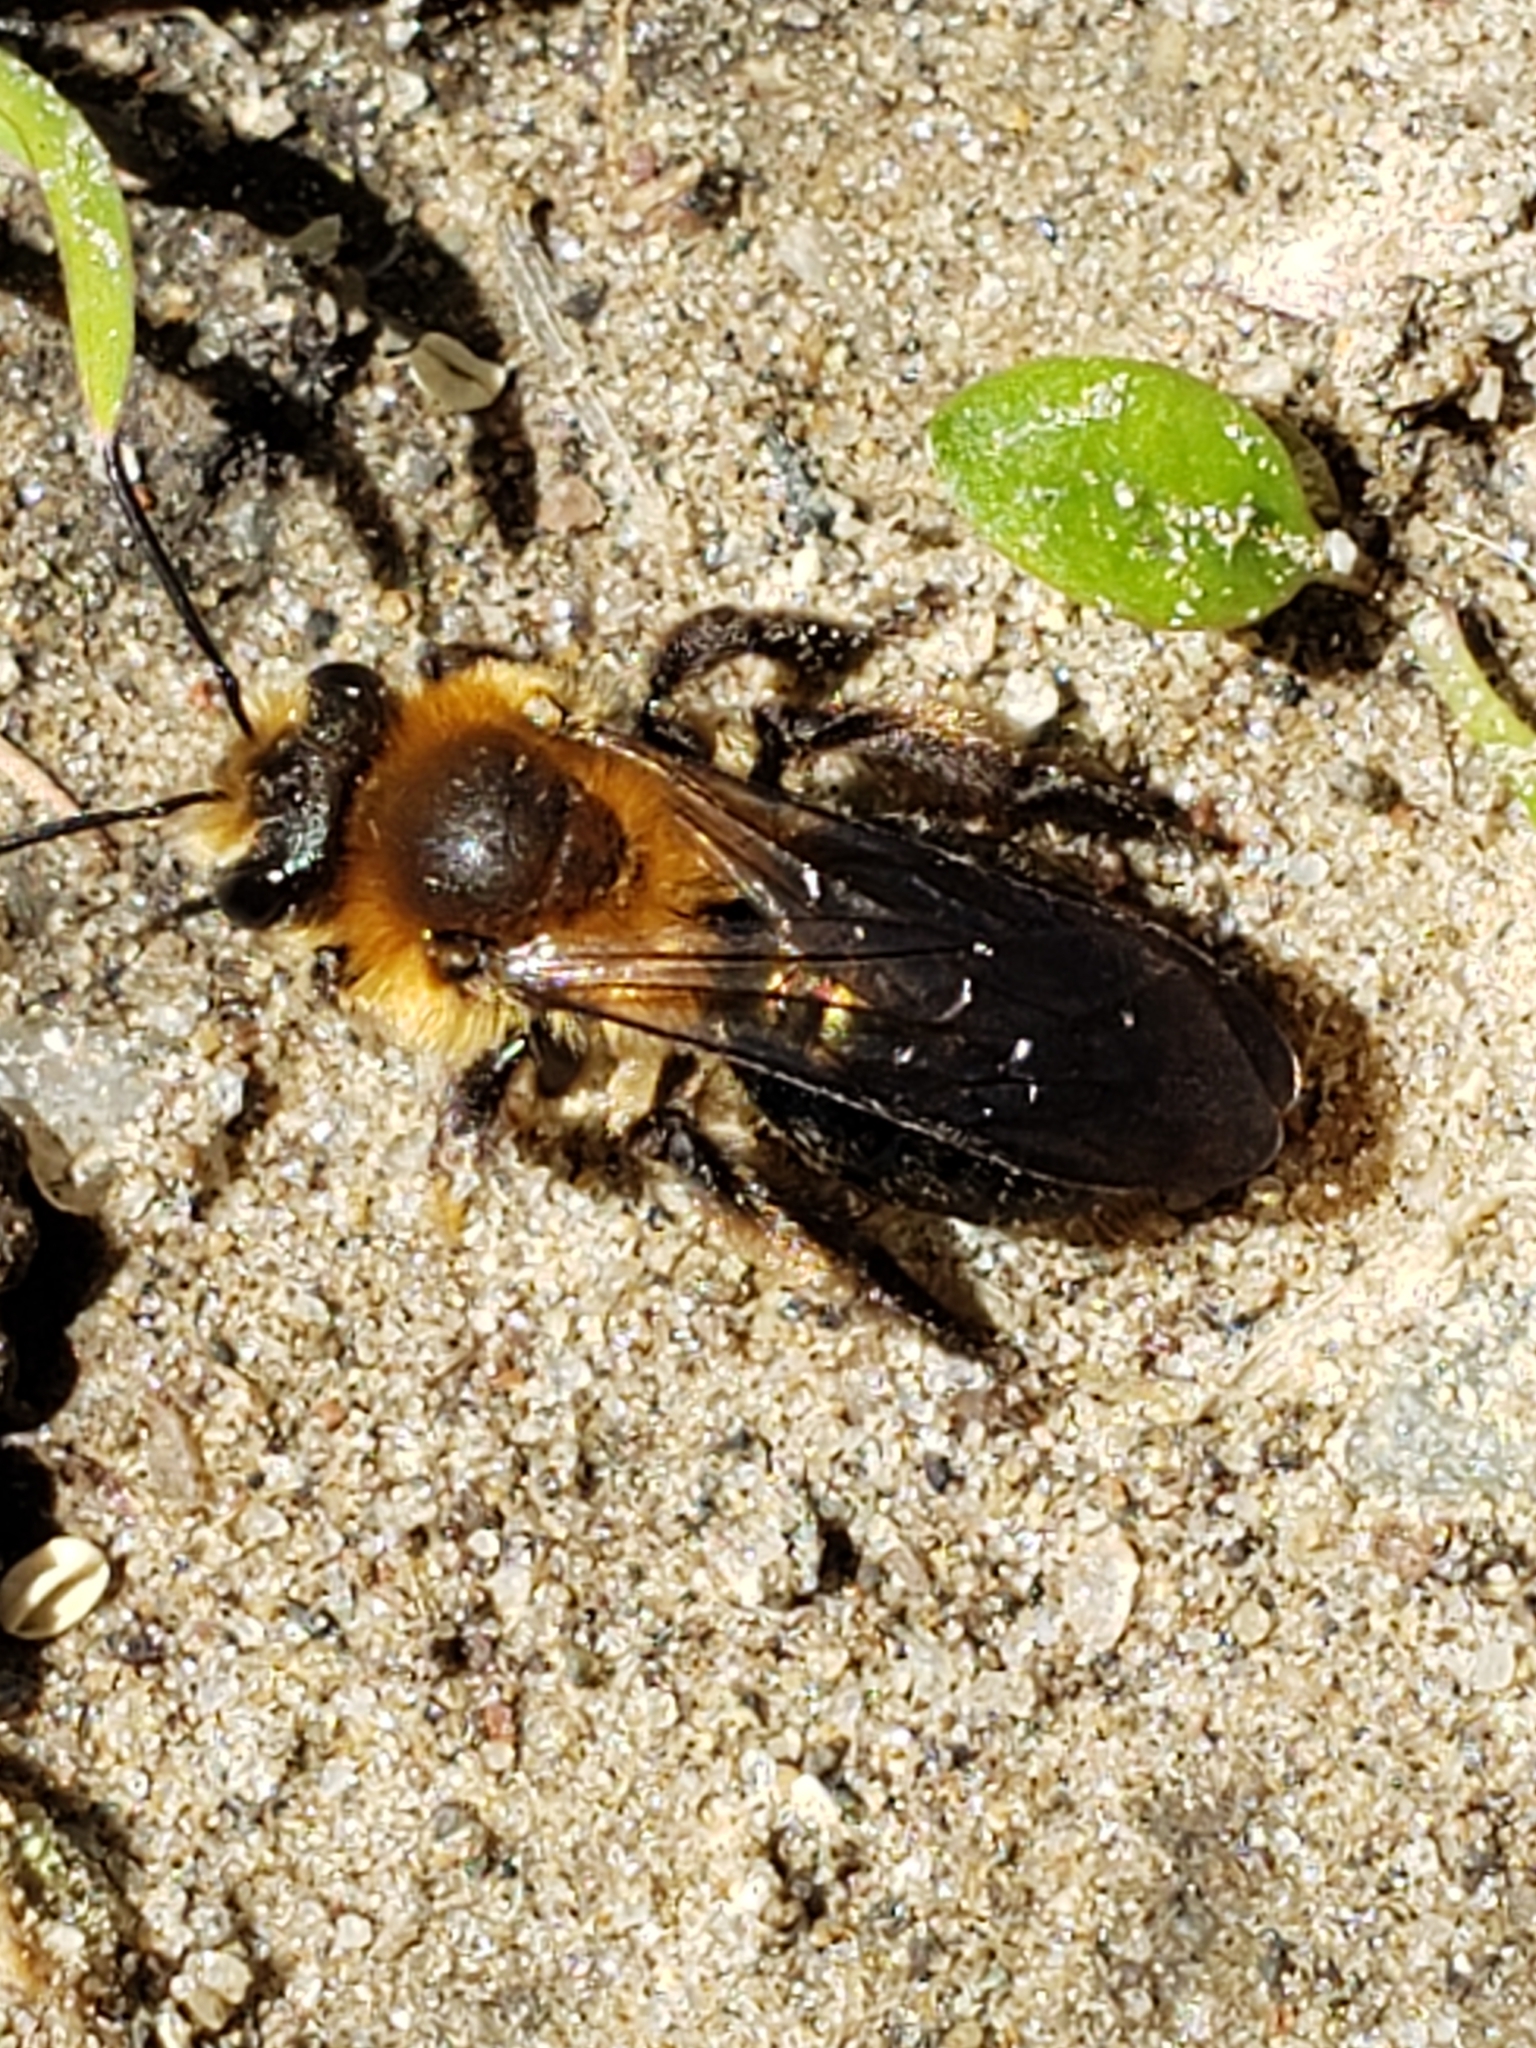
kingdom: Animalia
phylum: Arthropoda
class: Insecta
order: Hymenoptera
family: Andrenidae
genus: Andrena
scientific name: Andrena dunningi
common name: Dunning's miner
